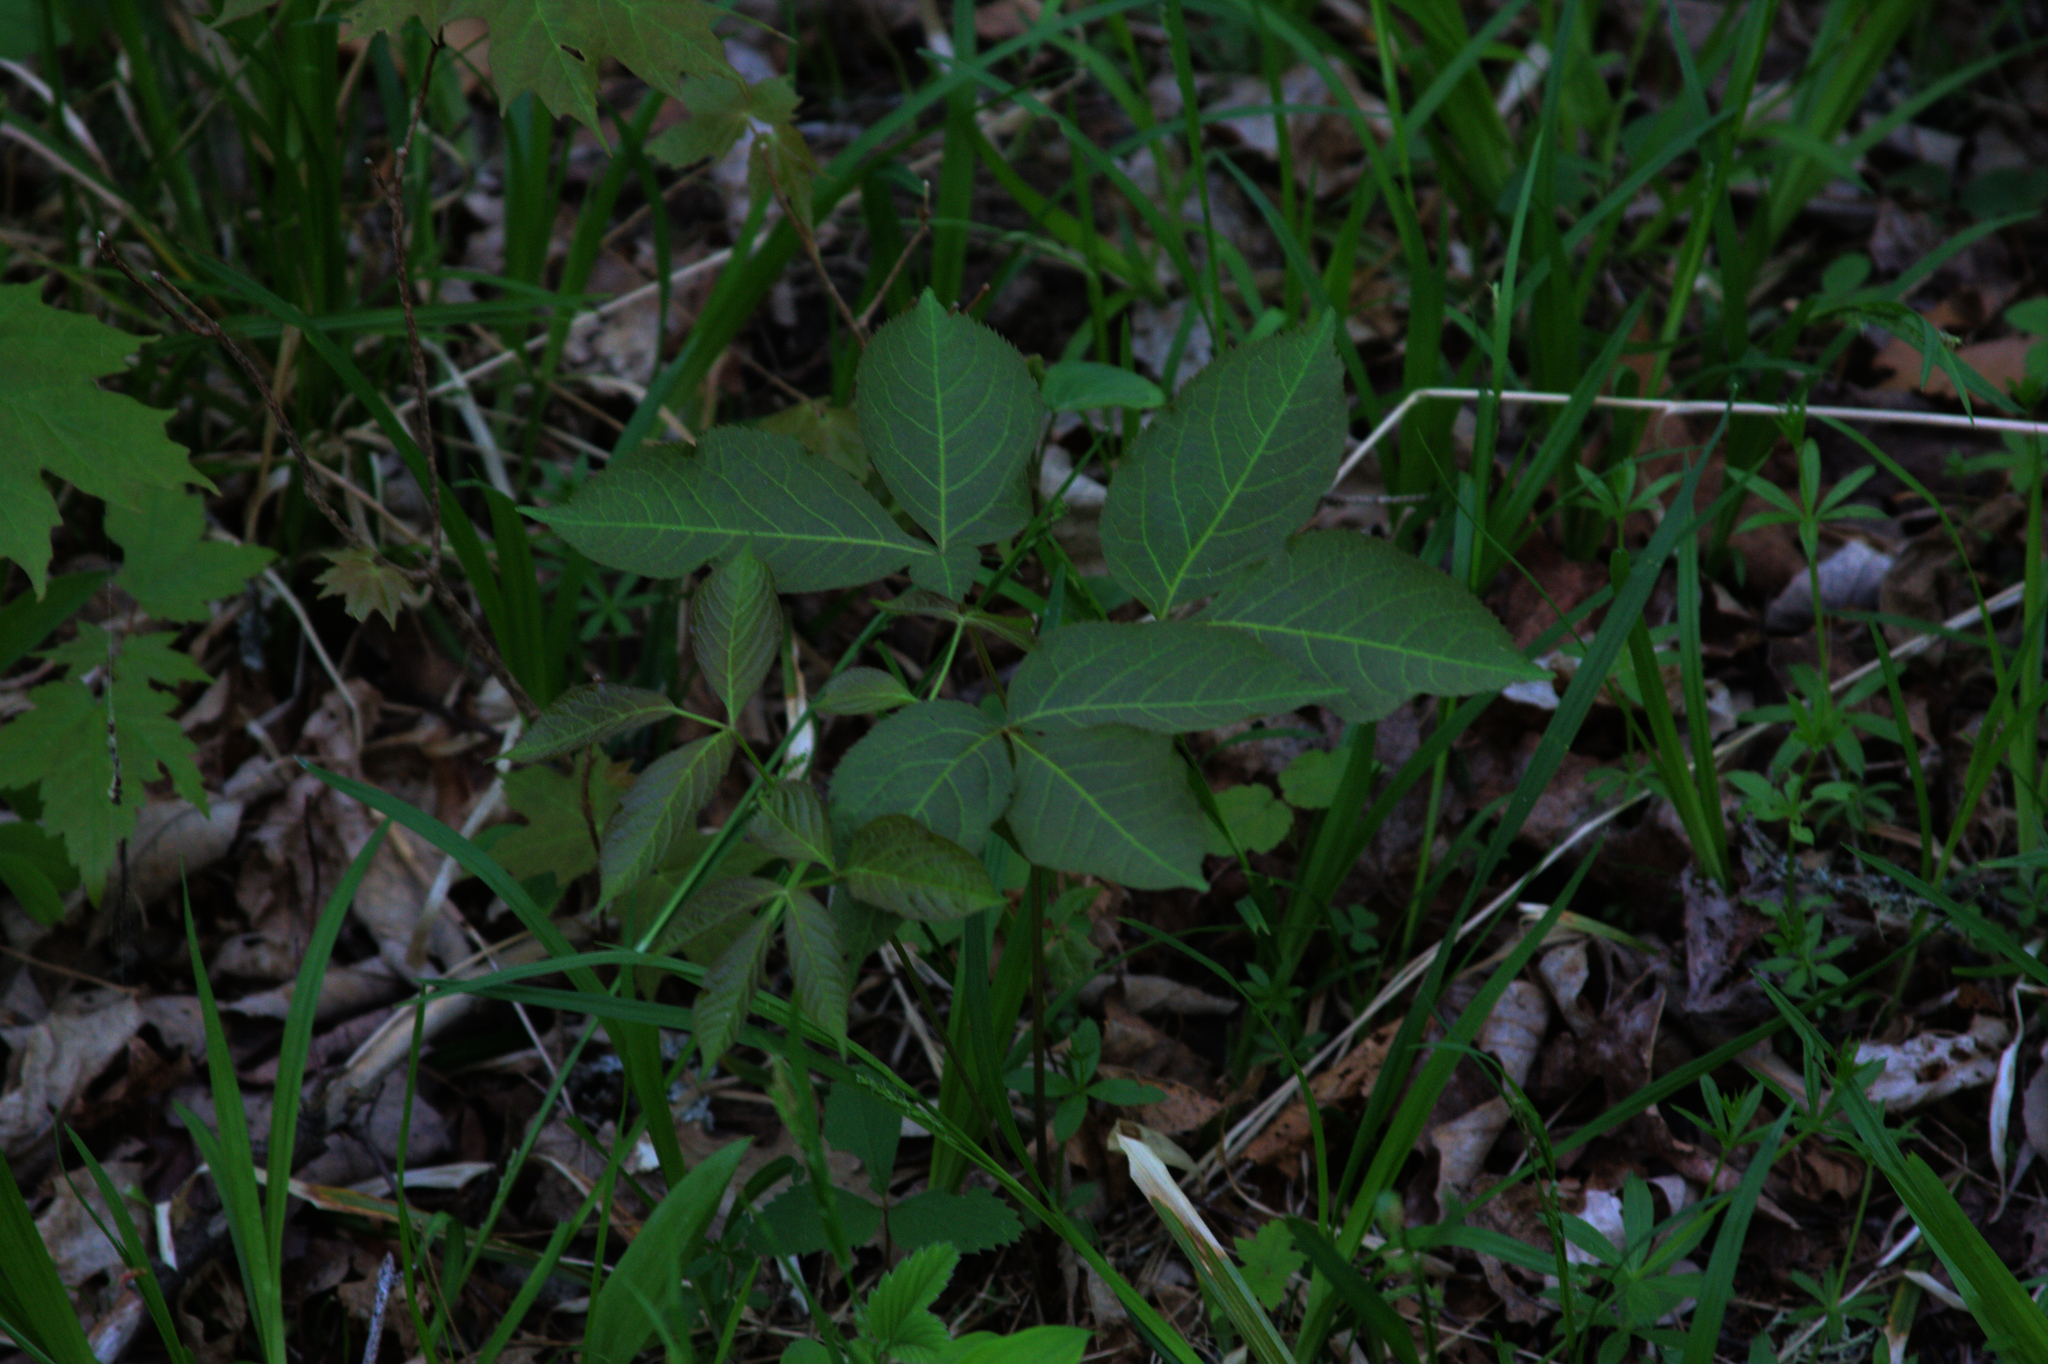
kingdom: Plantae
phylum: Tracheophyta
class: Magnoliopsida
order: Apiales
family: Araliaceae
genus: Aralia
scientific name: Aralia nudicaulis
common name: Wild sarsaparilla
